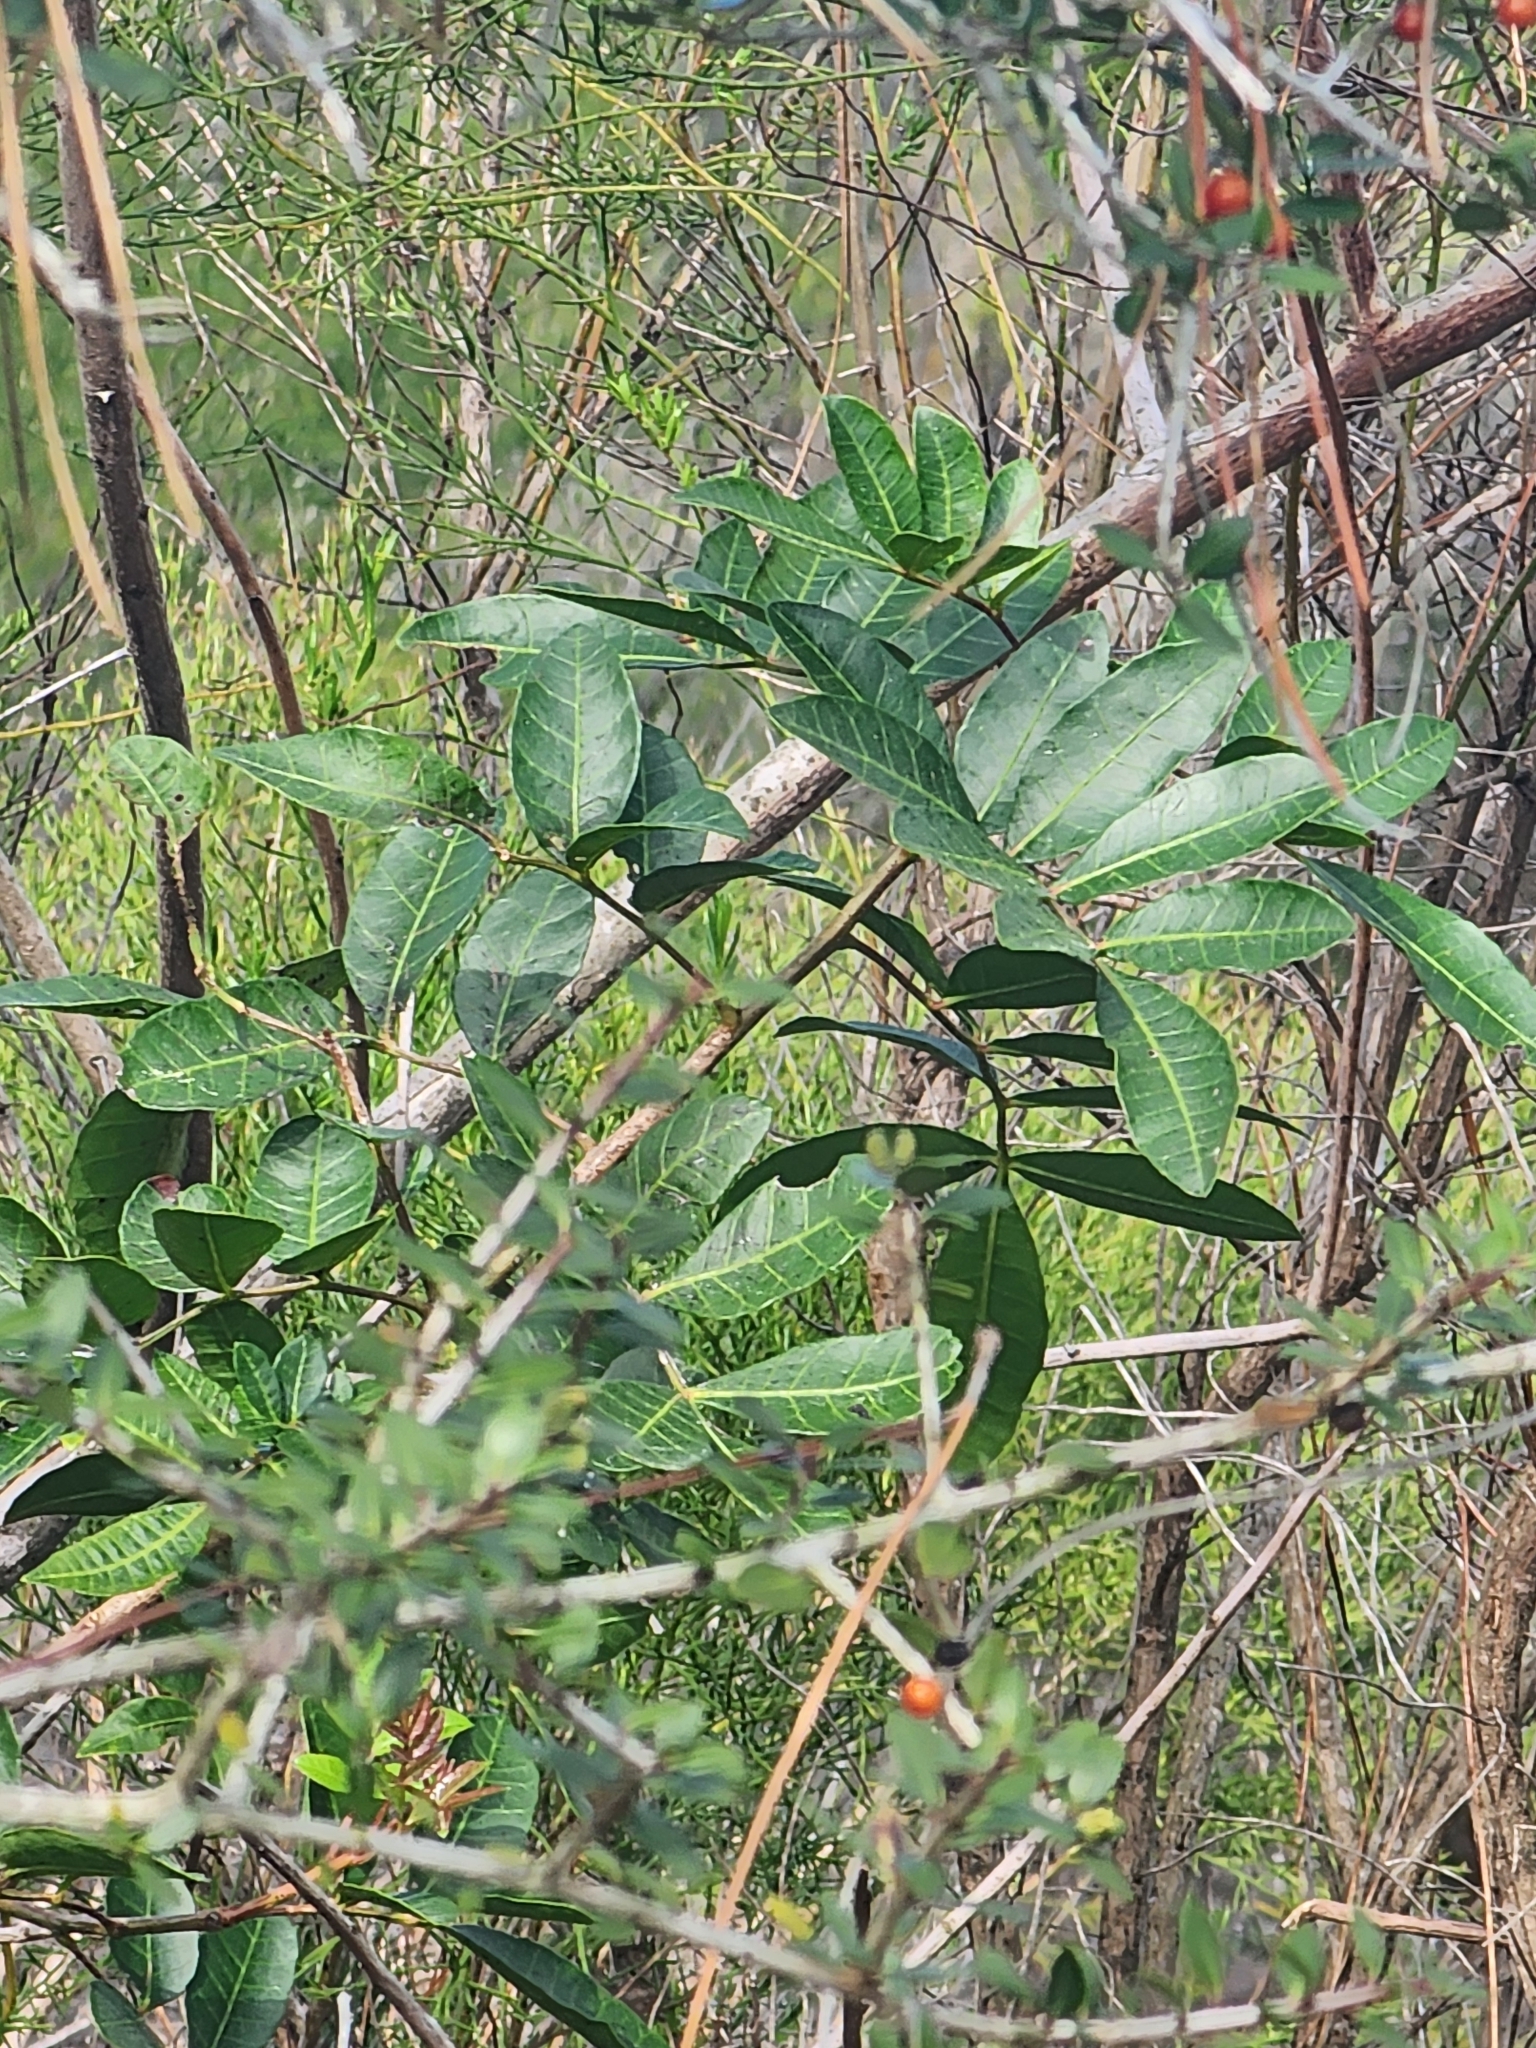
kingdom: Plantae
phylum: Tracheophyta
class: Magnoliopsida
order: Sapindales
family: Anacardiaceae
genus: Schinus
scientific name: Schinus terebinthifolia
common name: Brazilian peppertree
